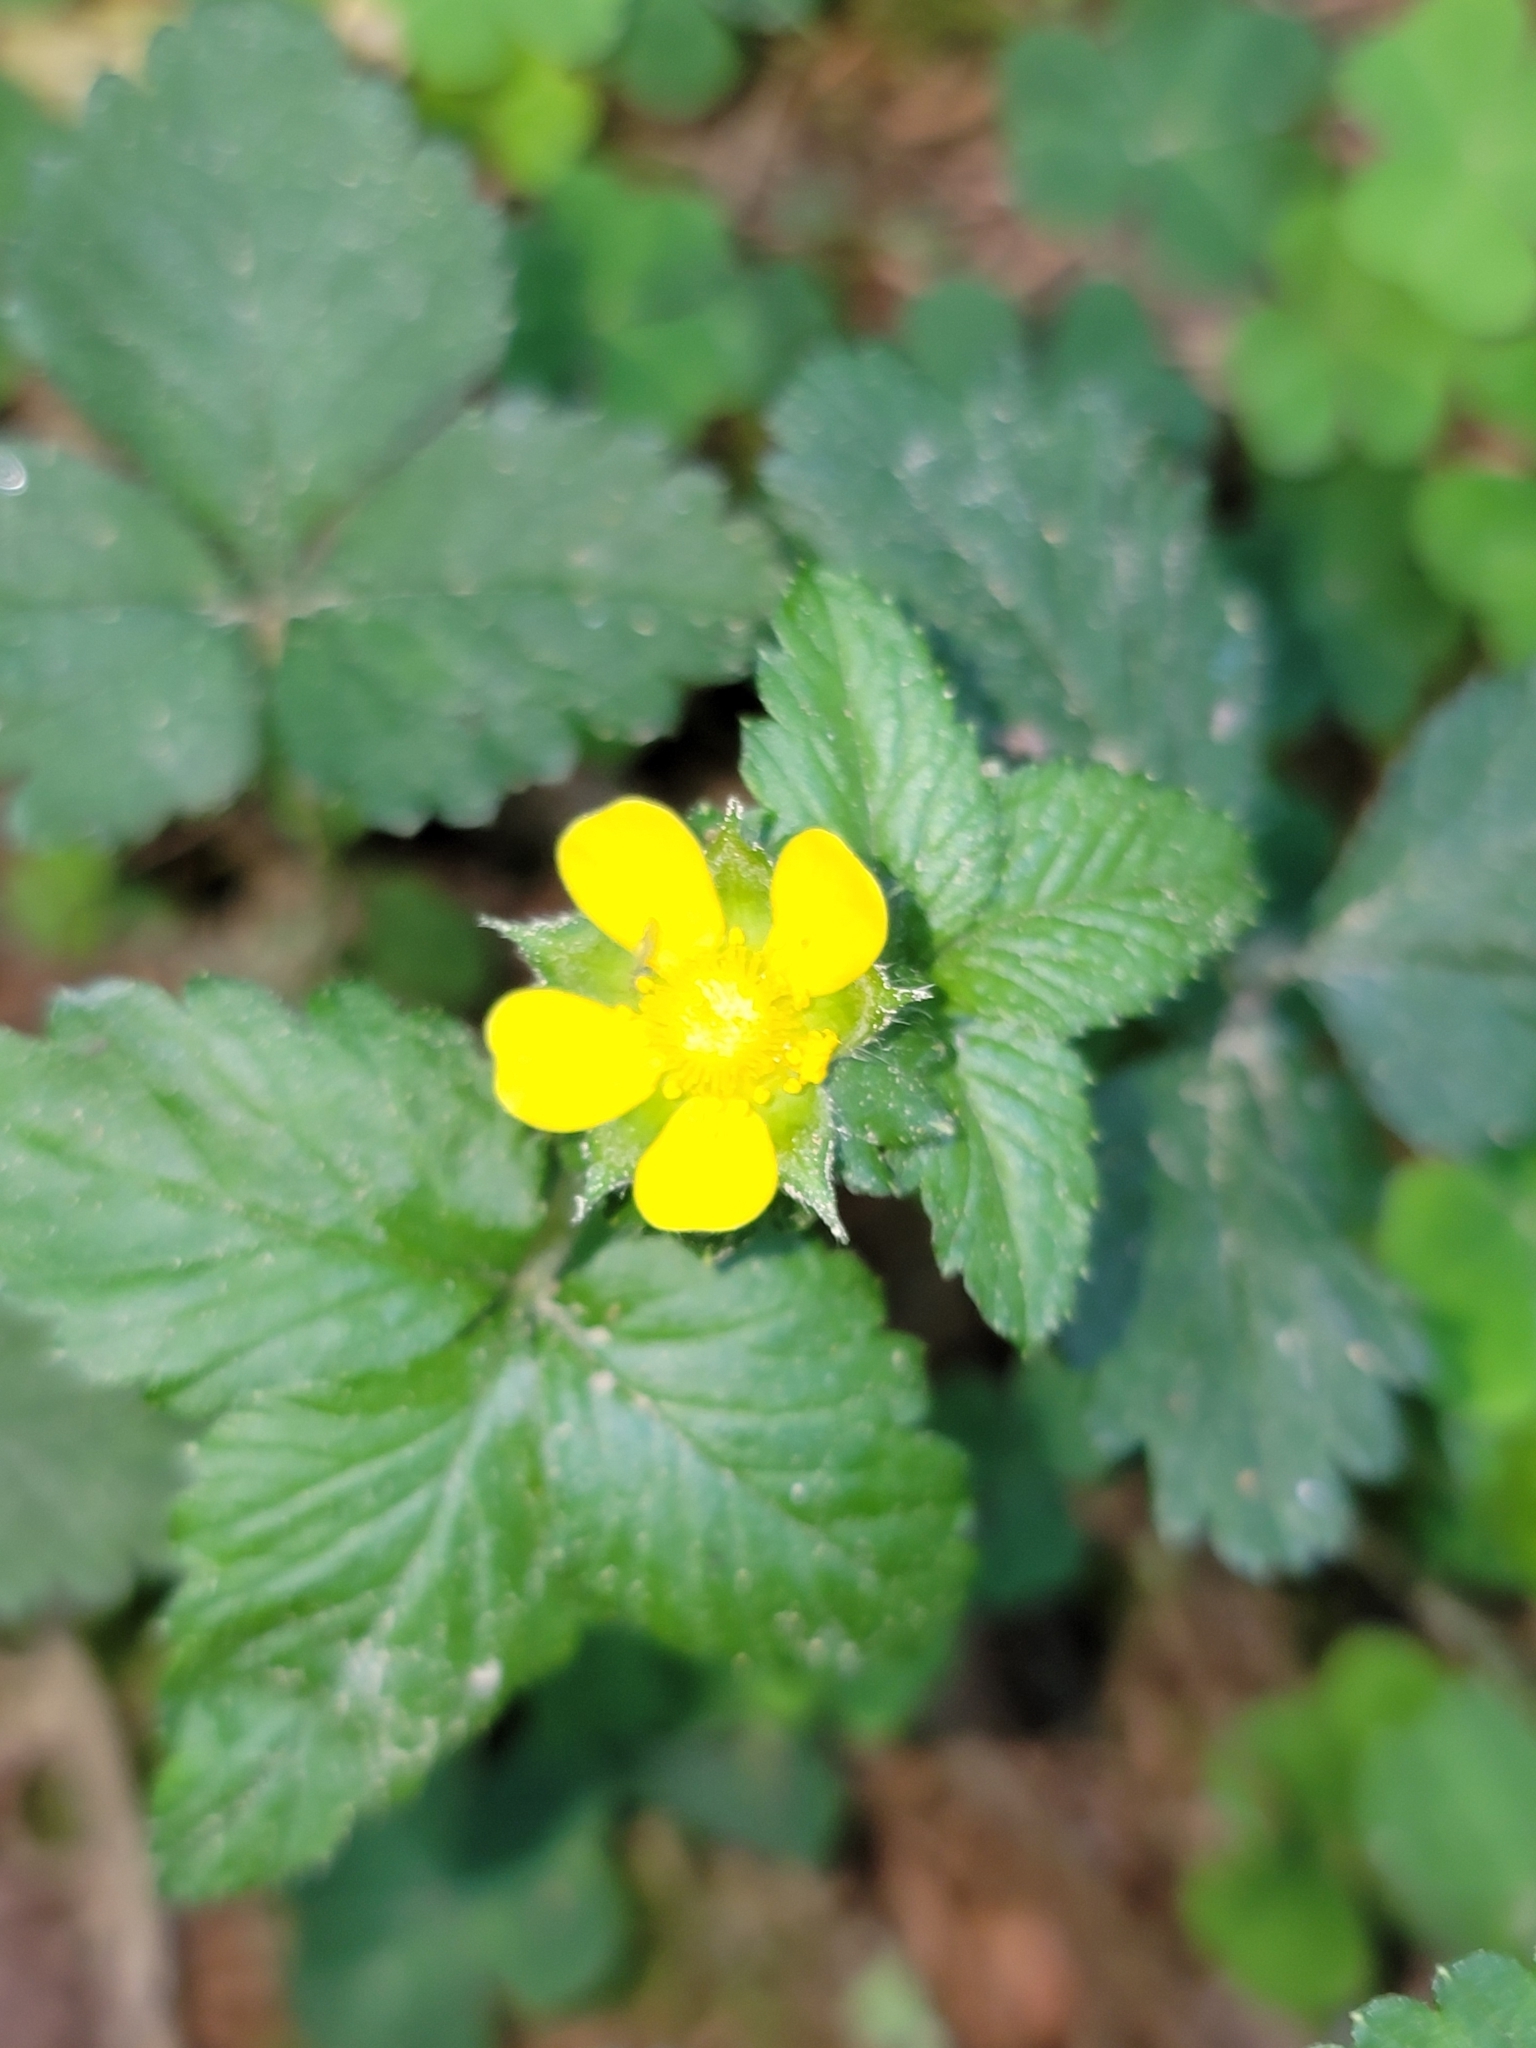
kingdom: Plantae
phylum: Tracheophyta
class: Magnoliopsida
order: Rosales
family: Rosaceae
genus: Potentilla
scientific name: Potentilla indica
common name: Yellow-flowered strawberry
